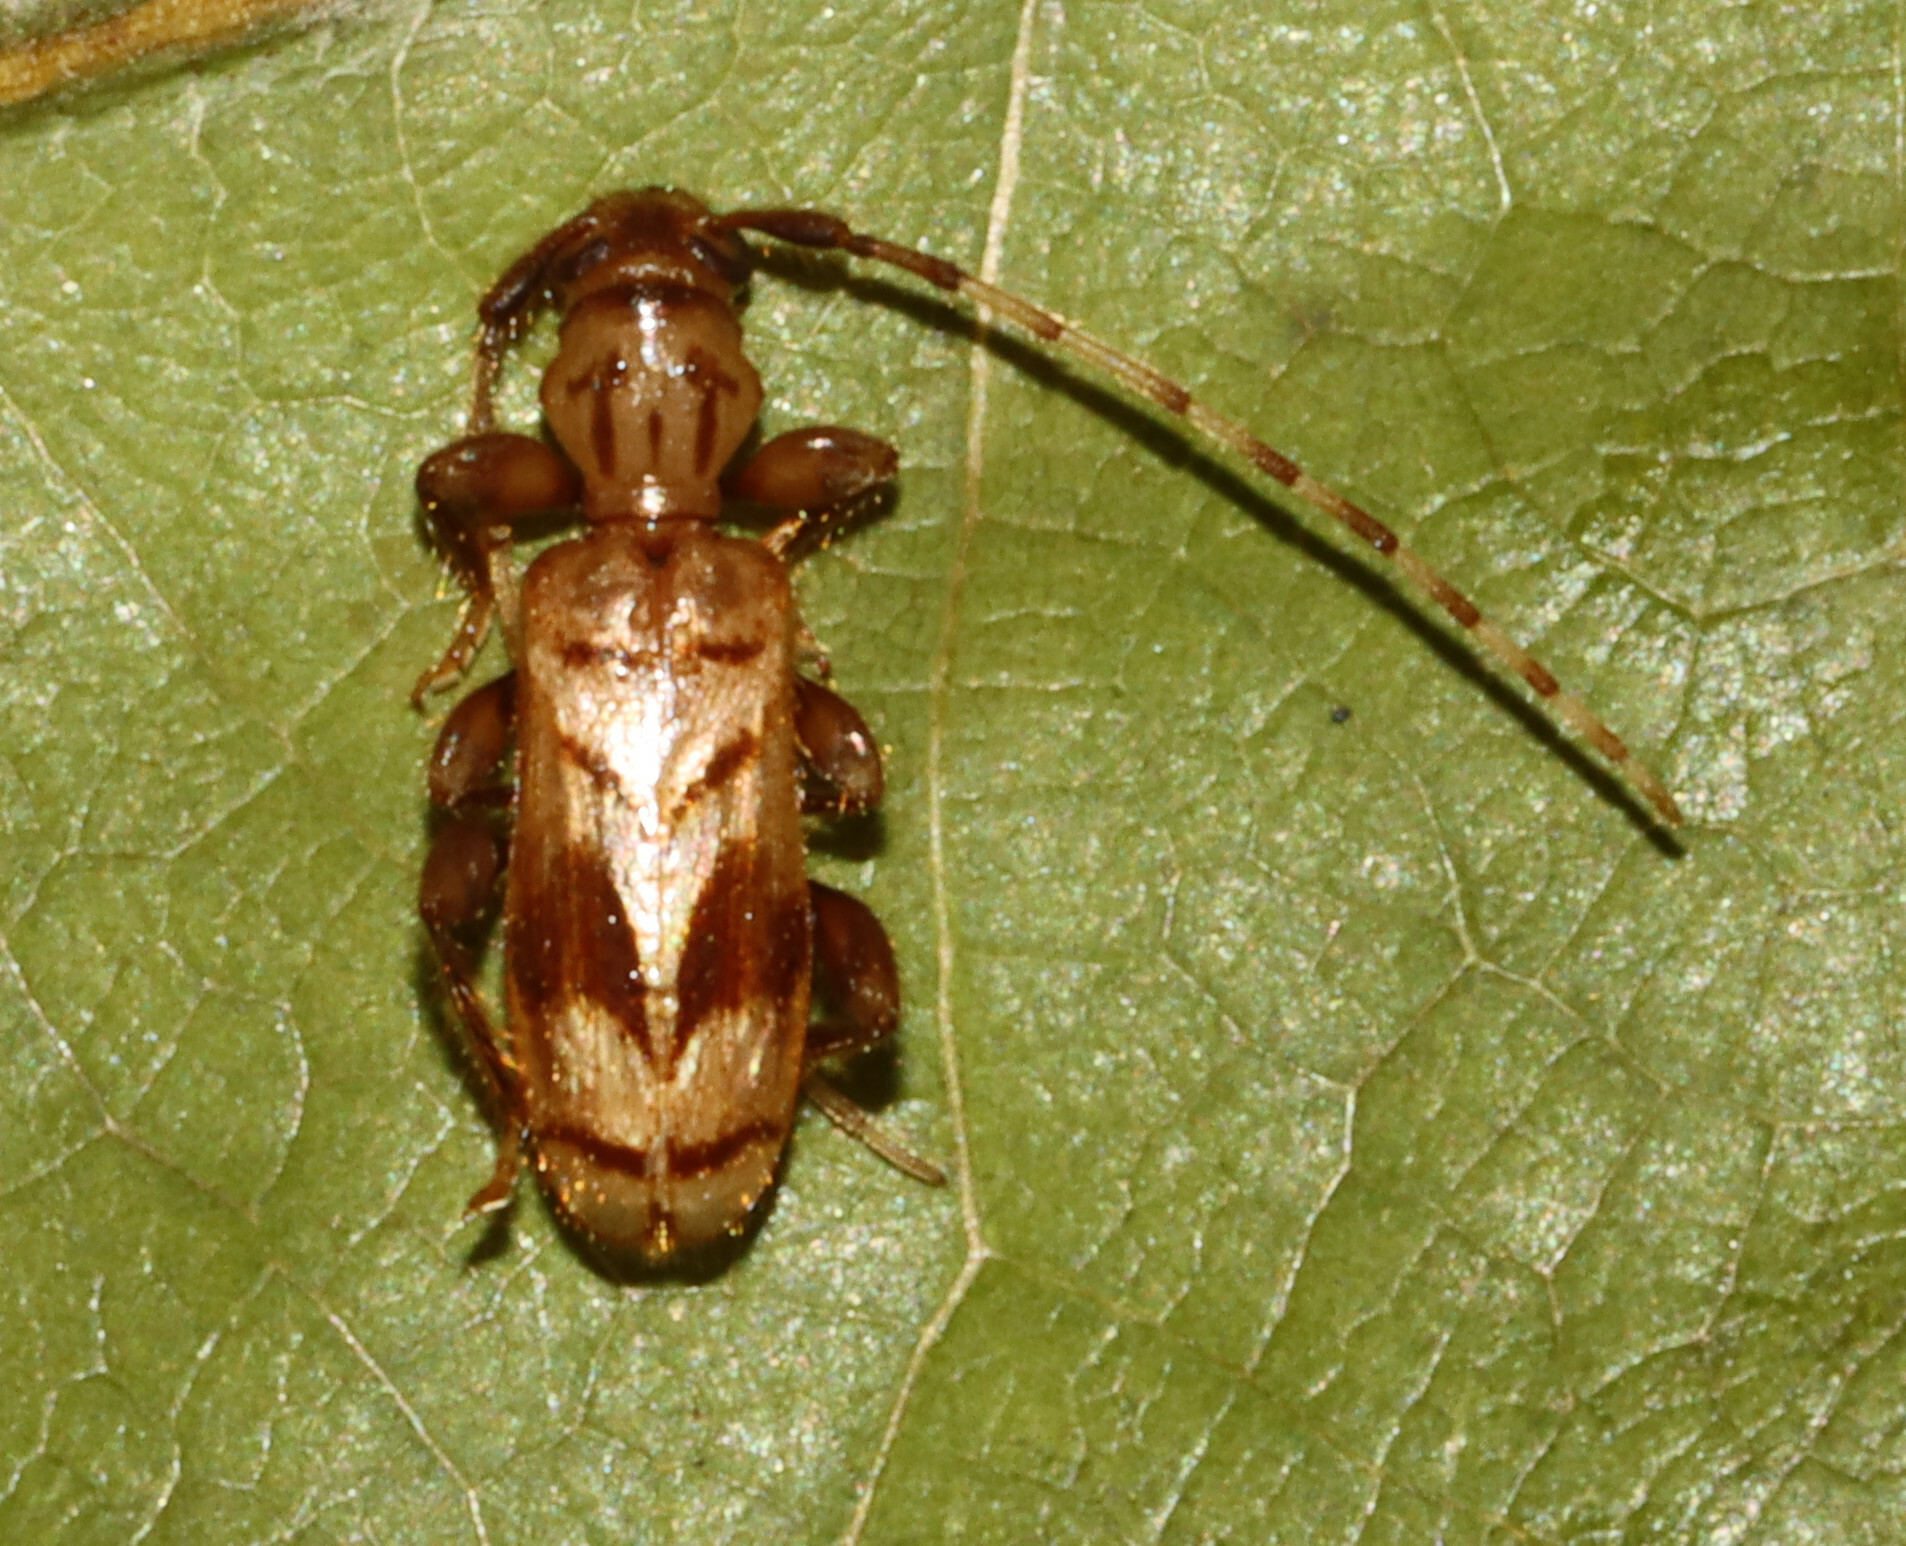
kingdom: Animalia
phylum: Arthropoda
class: Insecta
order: Coleoptera
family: Cerambycidae
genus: Obrium
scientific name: Obrium maculatum
